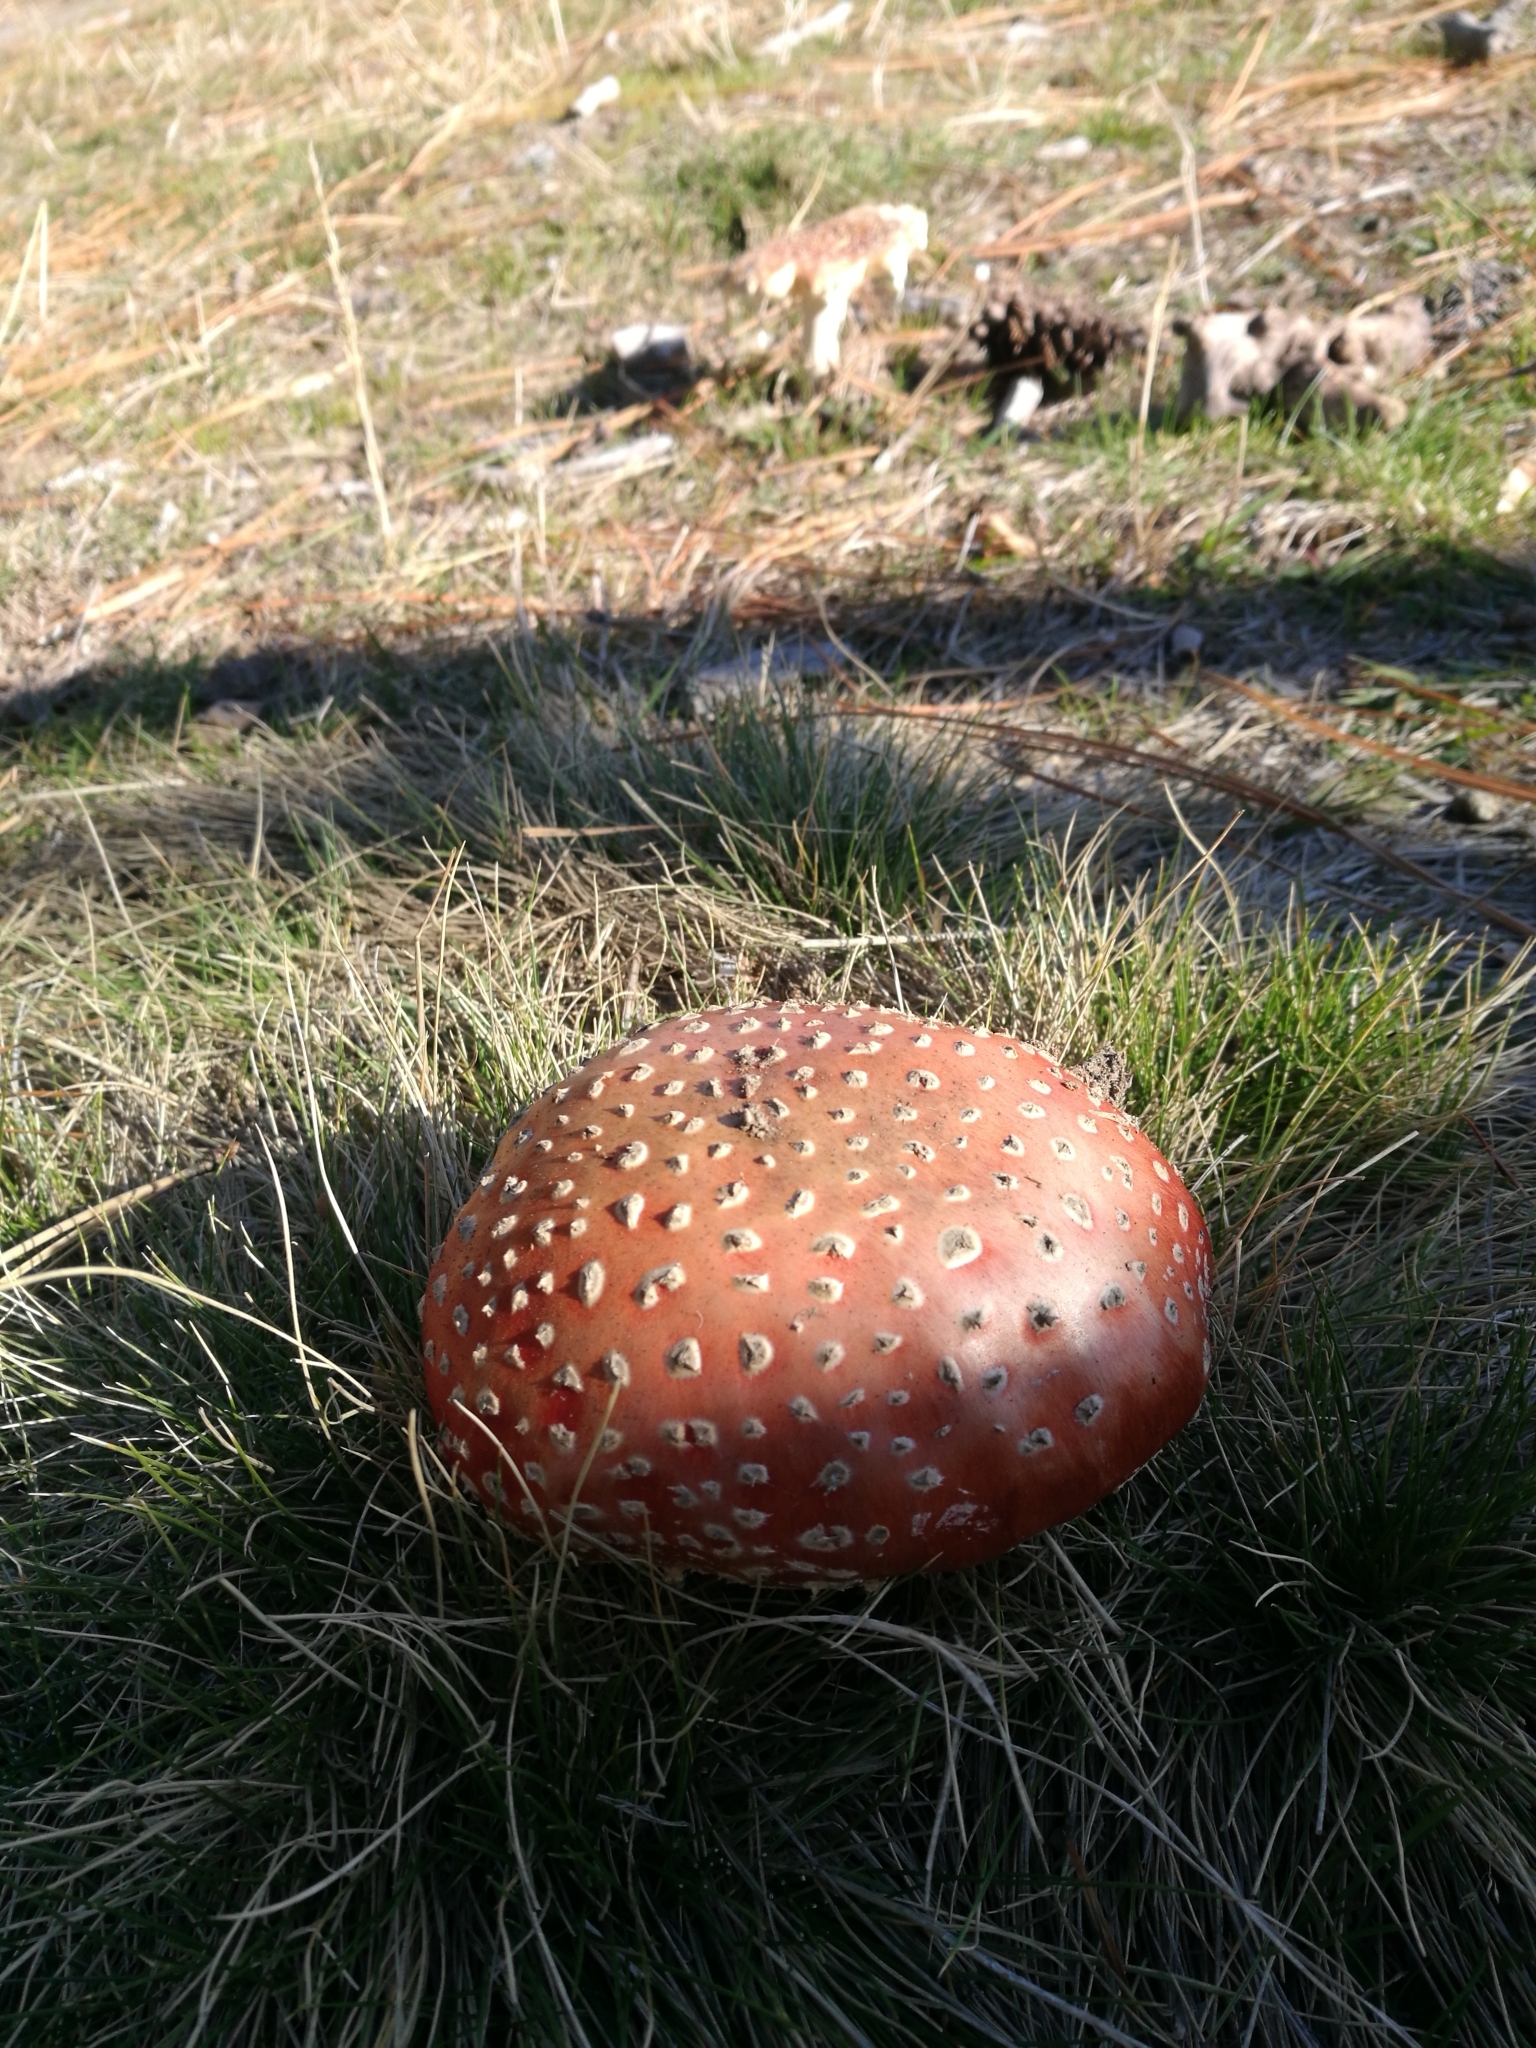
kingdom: Fungi
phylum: Basidiomycota
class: Agaricomycetes
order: Agaricales
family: Amanitaceae
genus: Amanita
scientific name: Amanita muscaria
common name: Fly agaric
